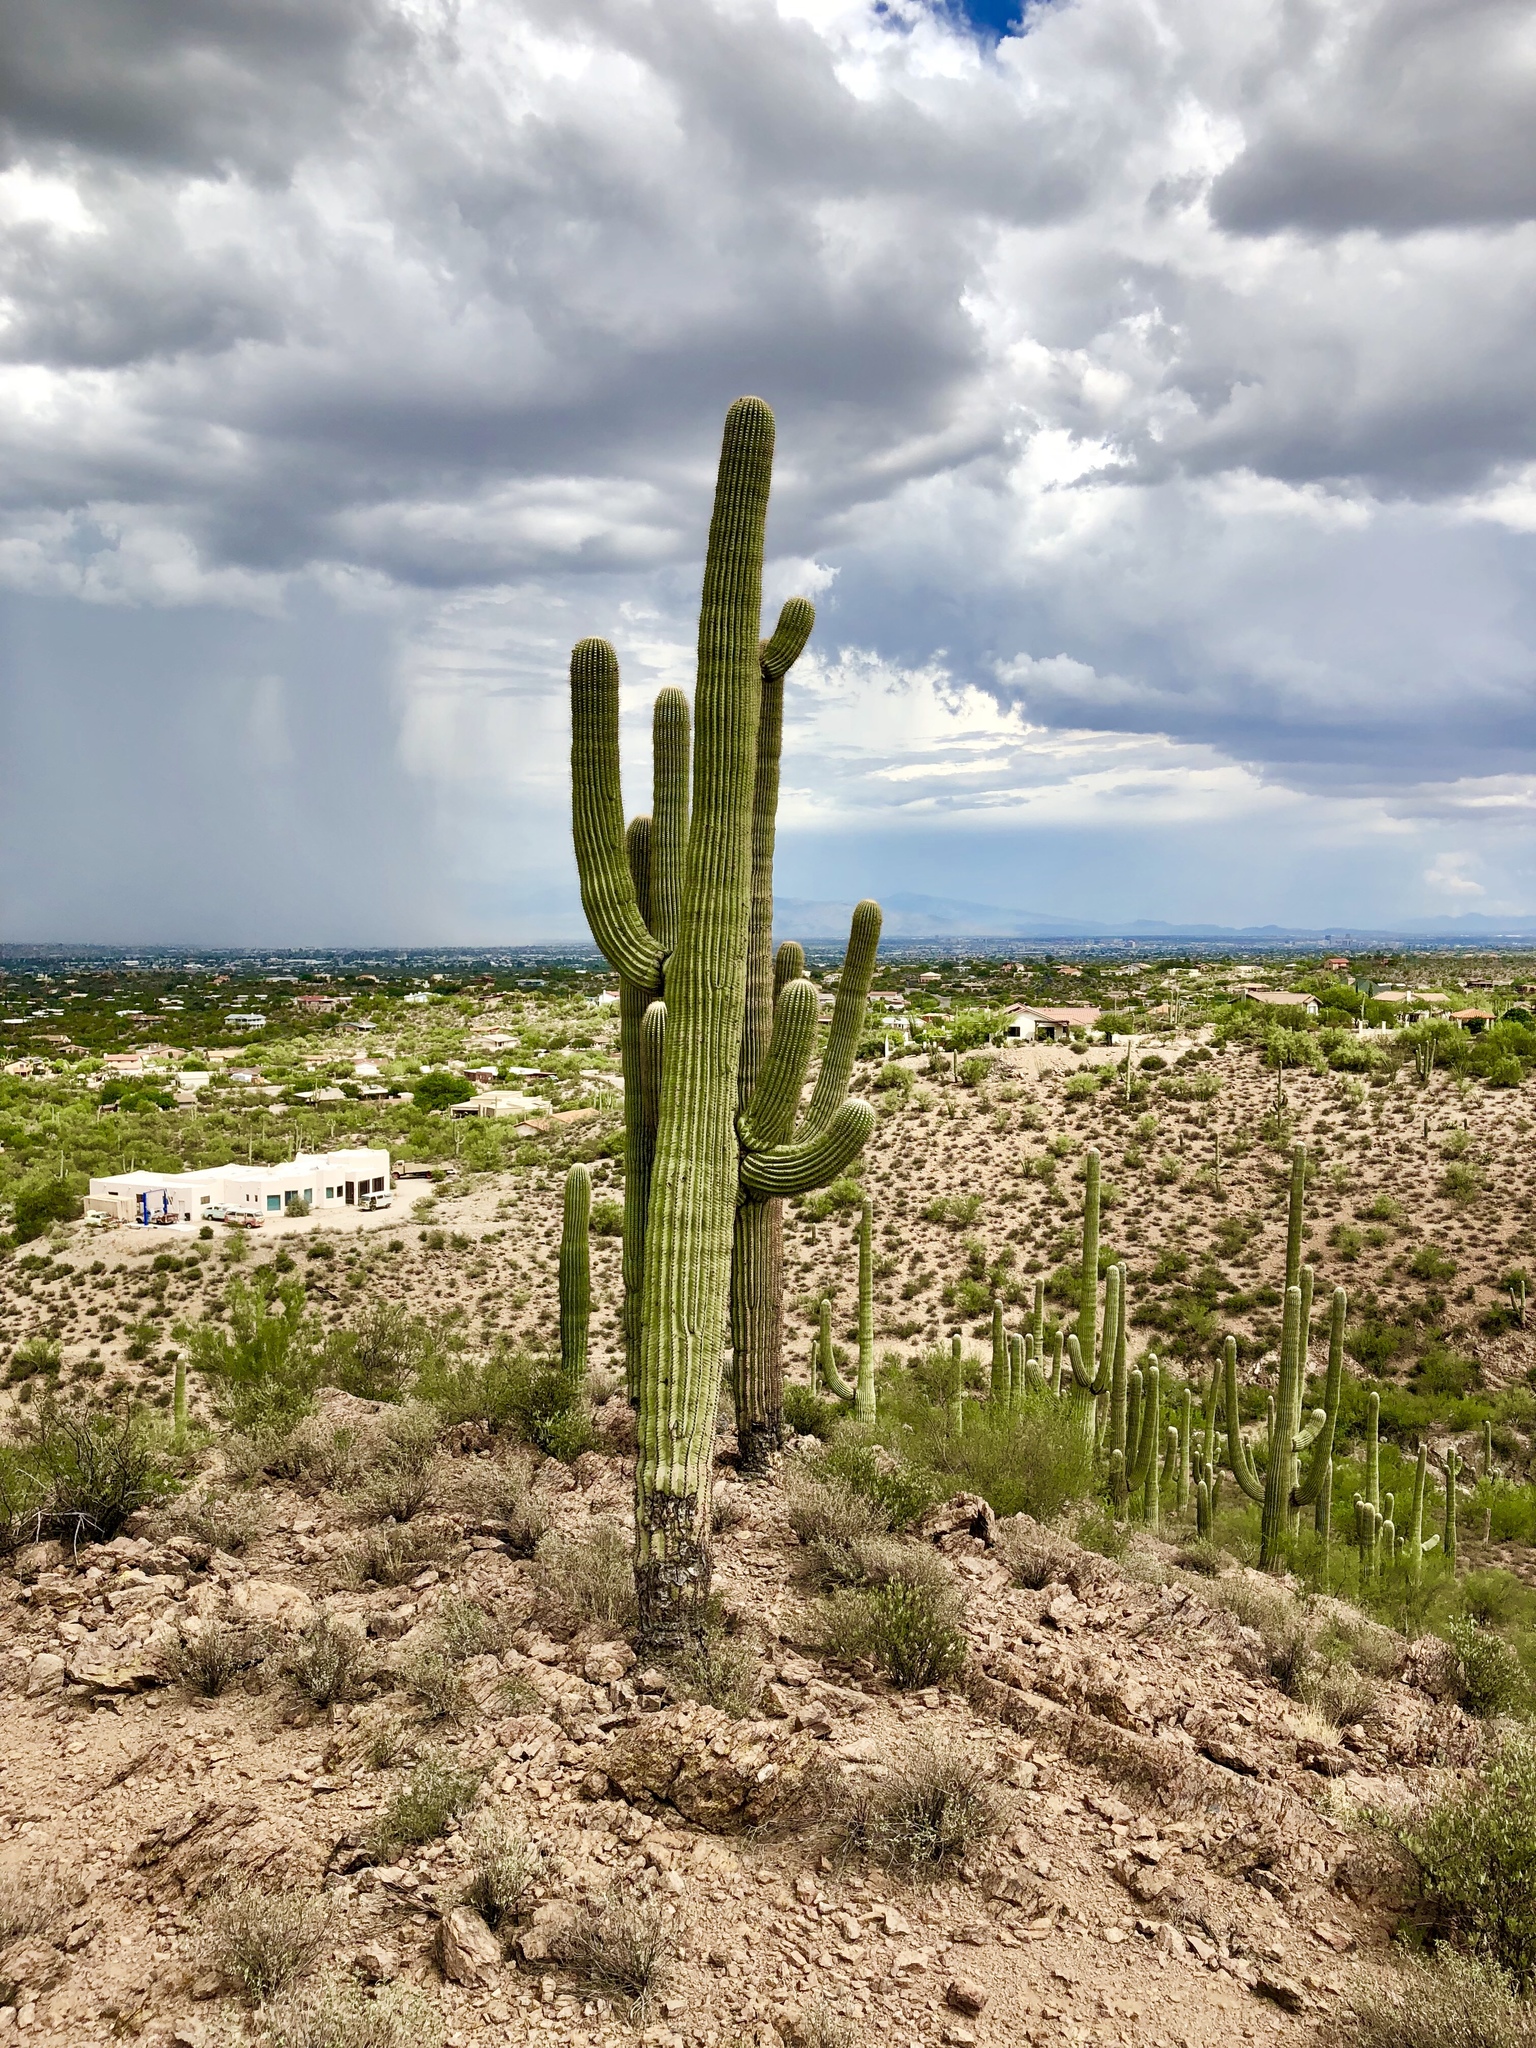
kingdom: Plantae
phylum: Tracheophyta
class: Magnoliopsida
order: Caryophyllales
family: Cactaceae
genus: Carnegiea
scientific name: Carnegiea gigantea
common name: Saguaro
